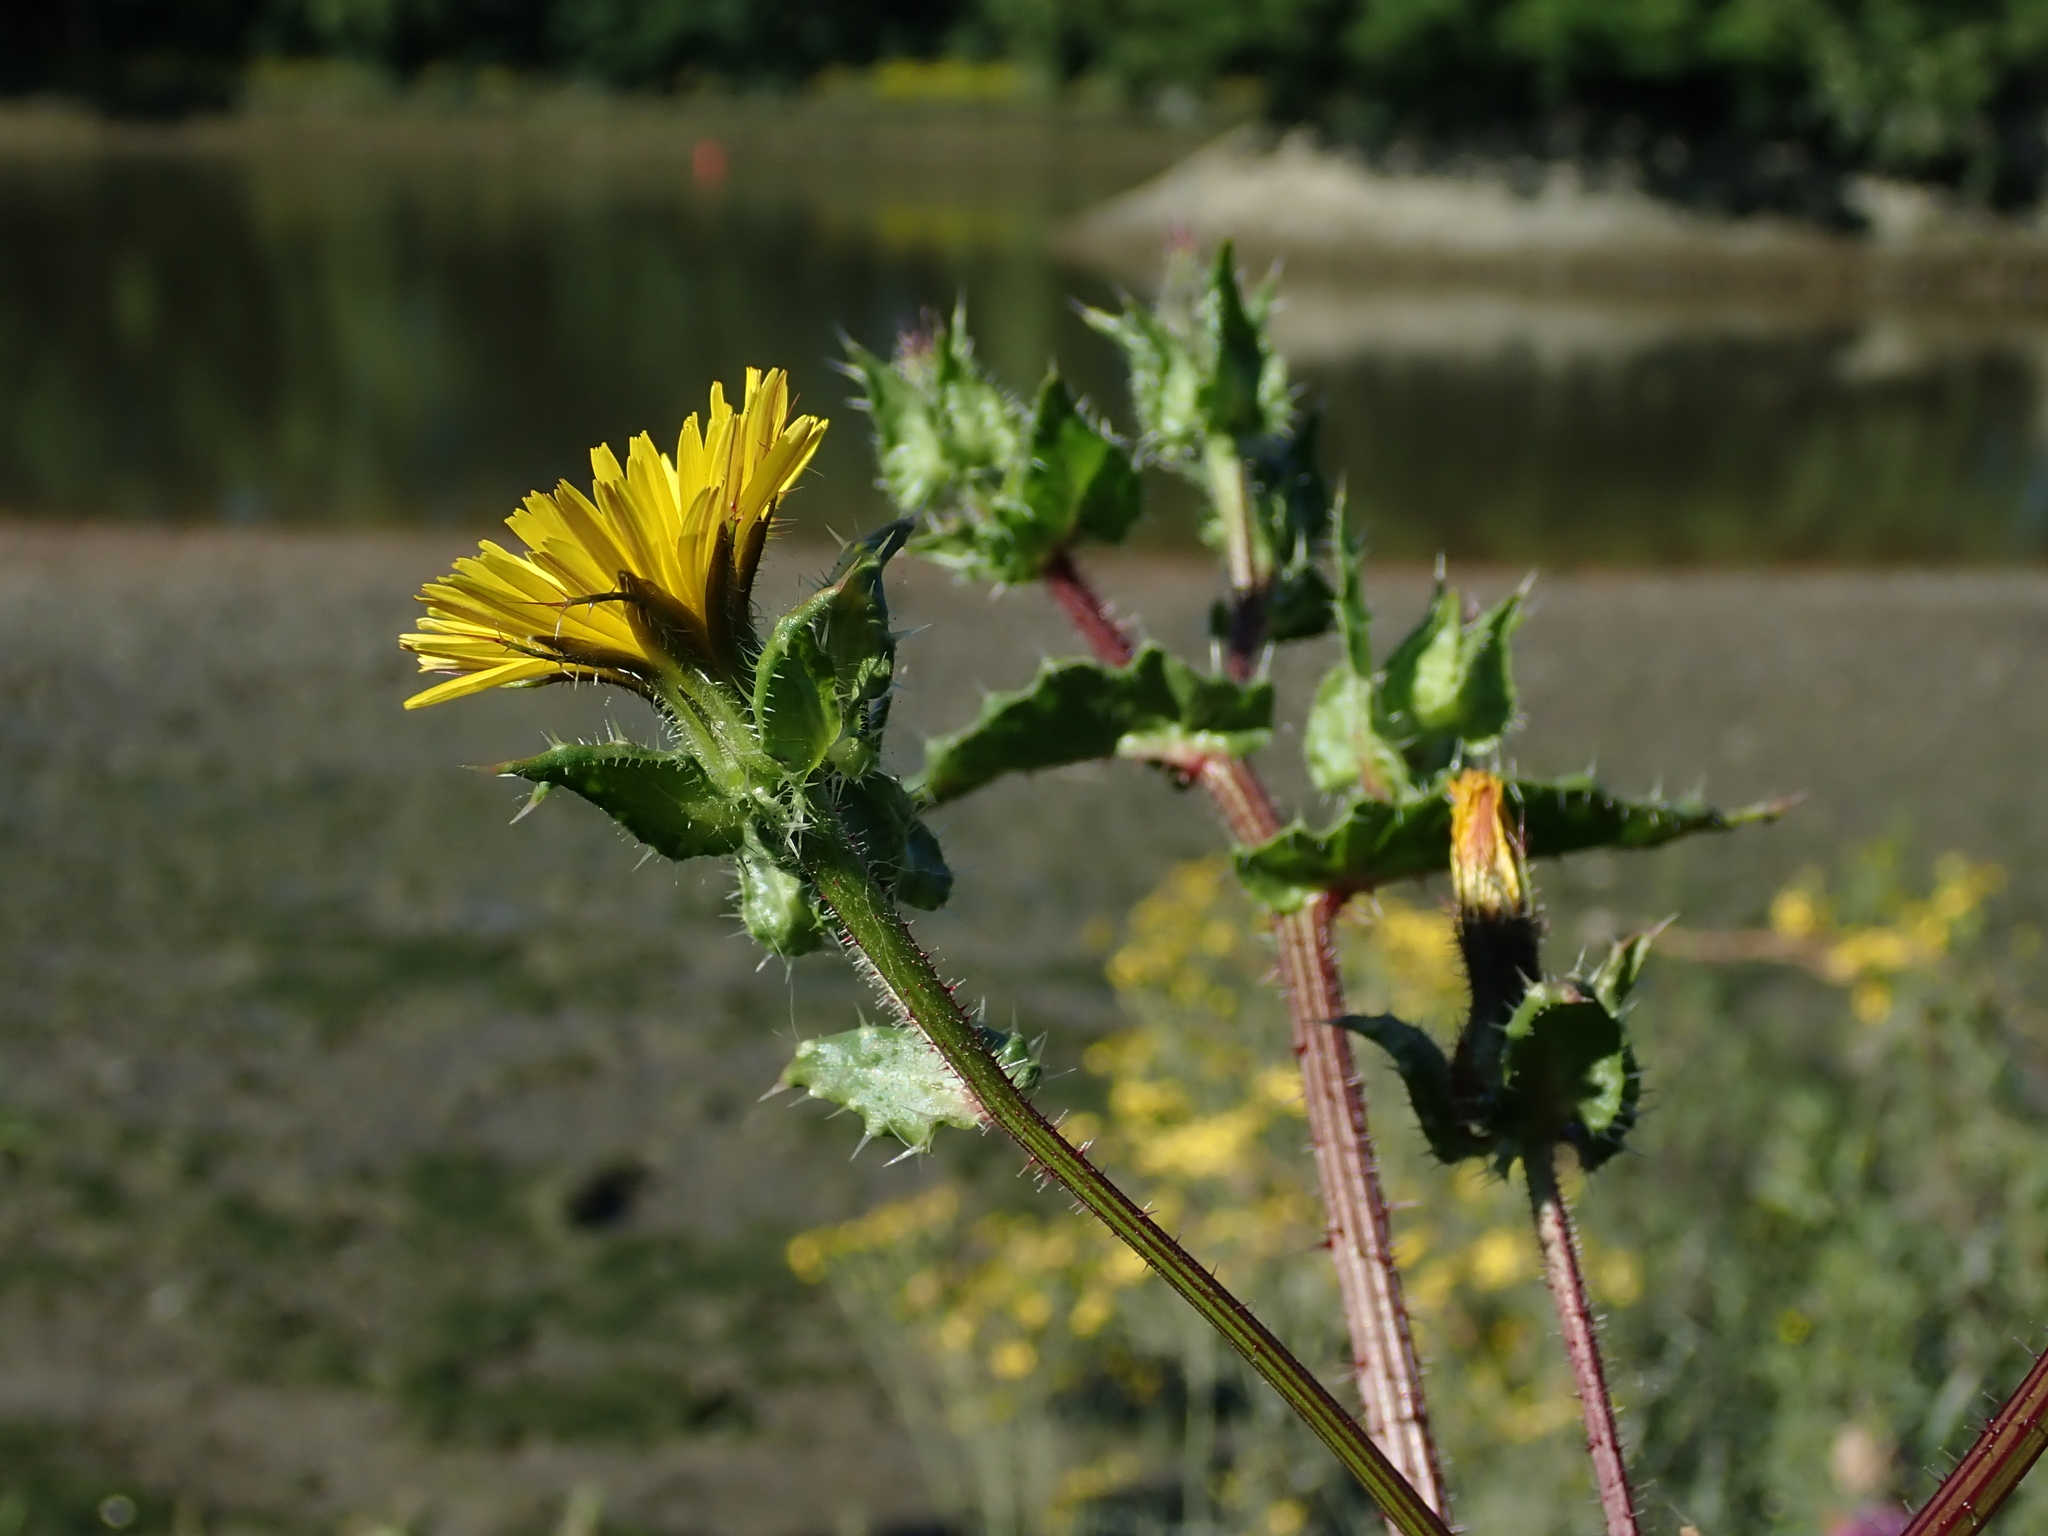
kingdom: Plantae
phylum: Tracheophyta
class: Magnoliopsida
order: Asterales
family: Asteraceae
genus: Helminthotheca
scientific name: Helminthotheca echioides
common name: Ox-tongue
